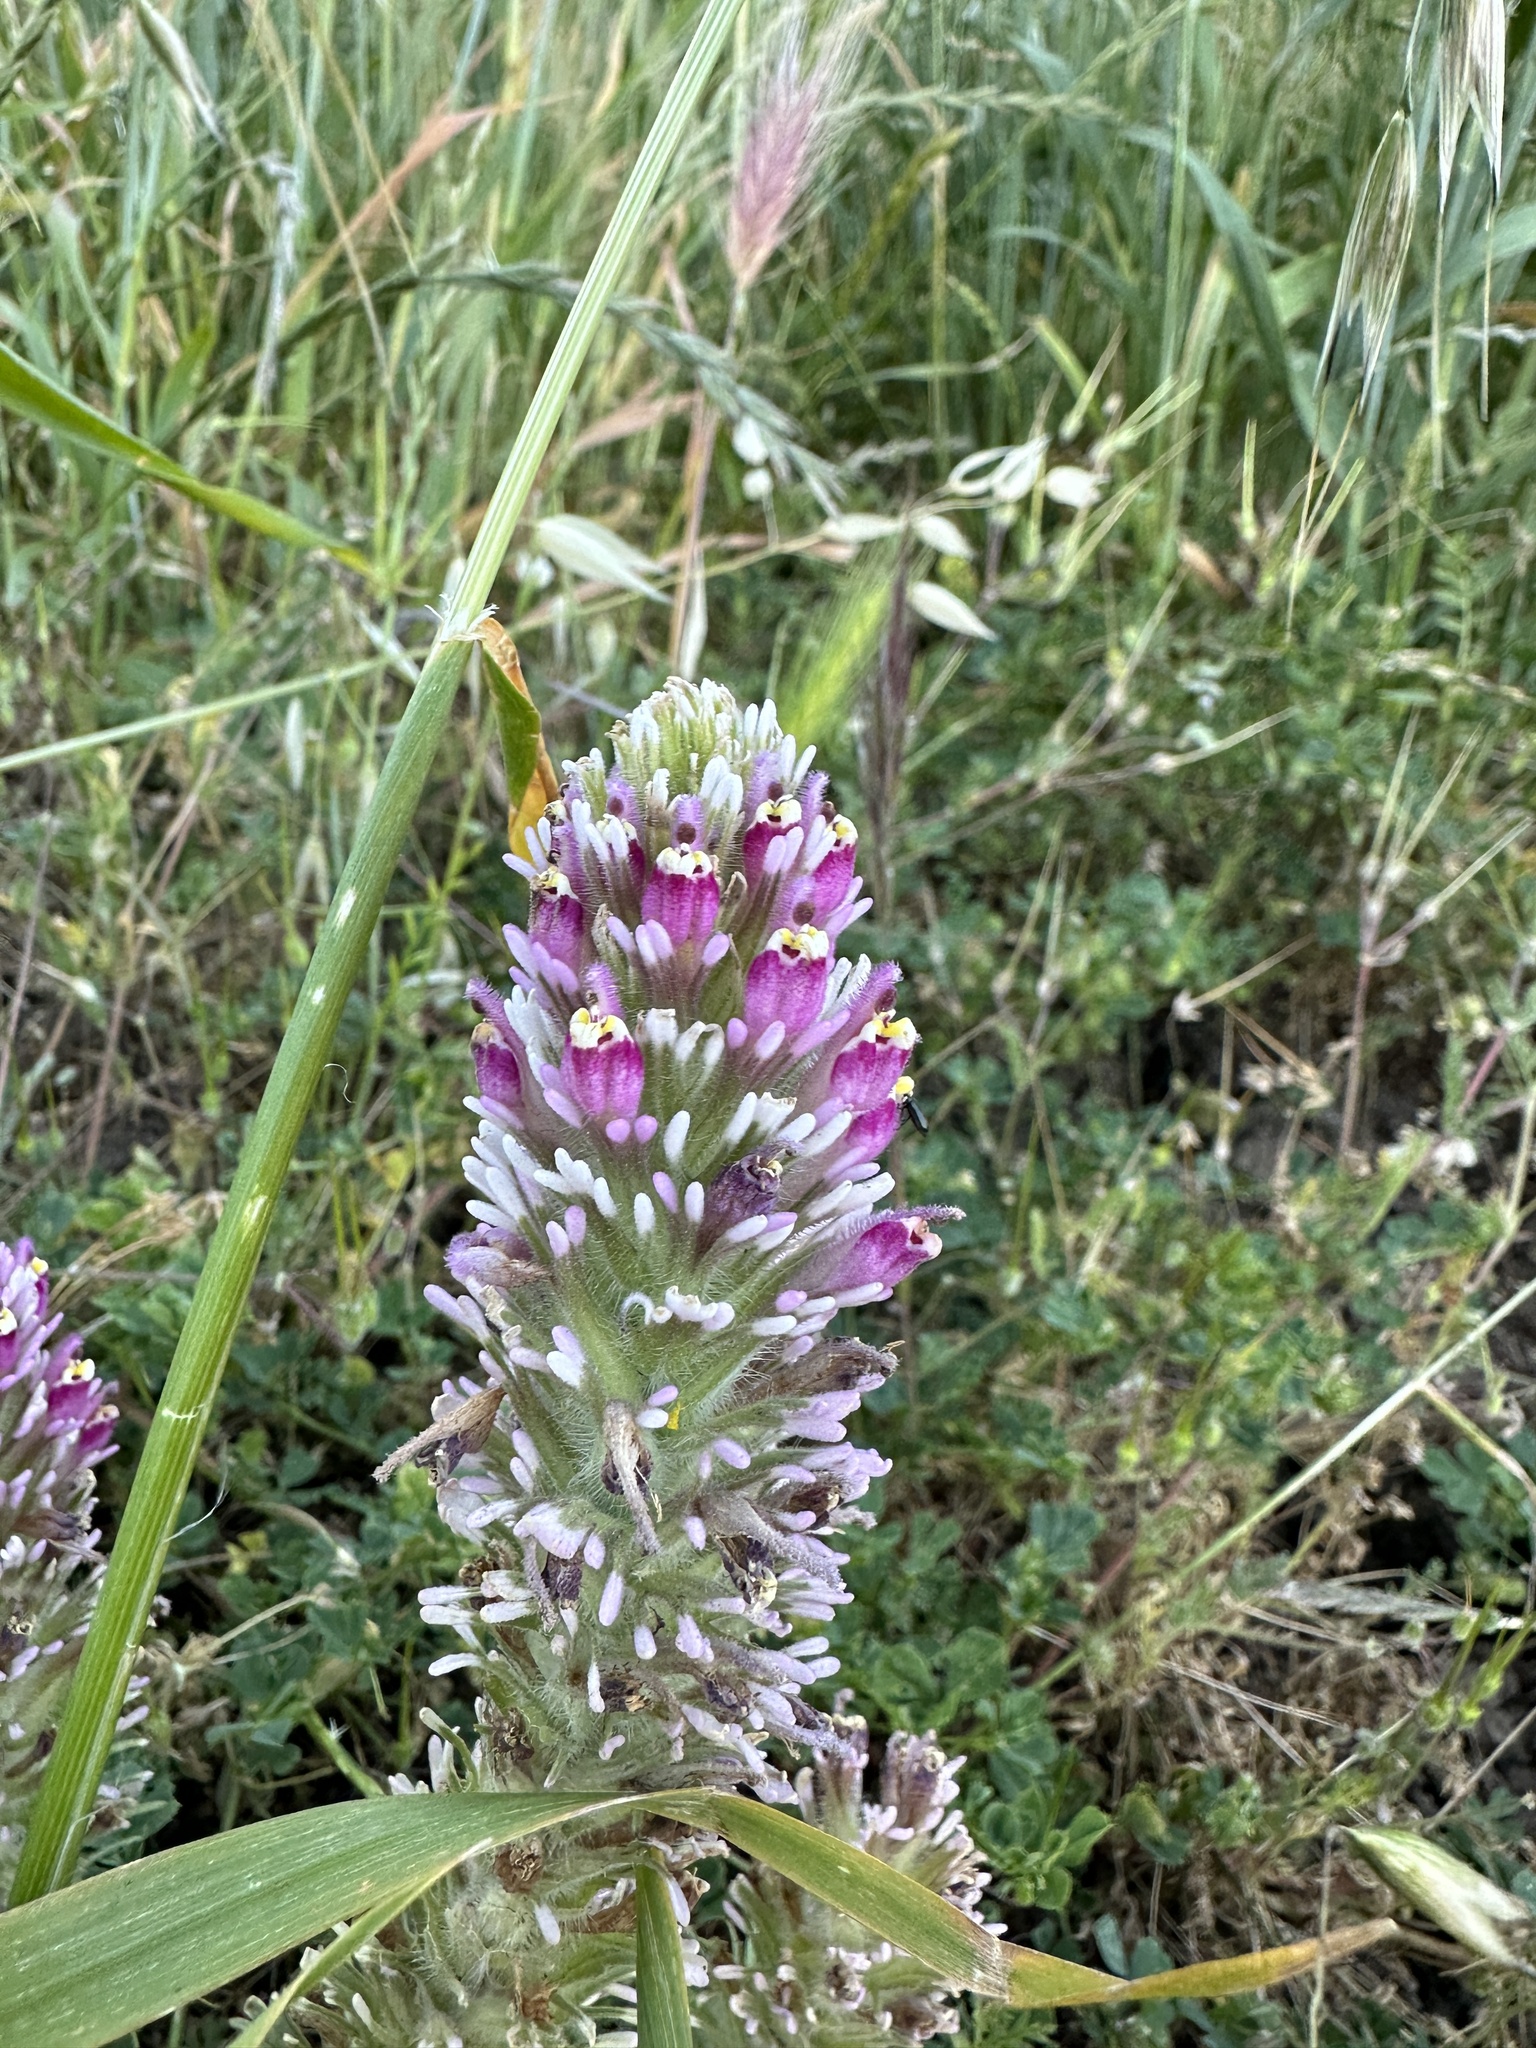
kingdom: Plantae
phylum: Tracheophyta
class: Magnoliopsida
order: Lamiales
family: Orobanchaceae
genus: Castilleja
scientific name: Castilleja exserta
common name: Purple owl-clover
